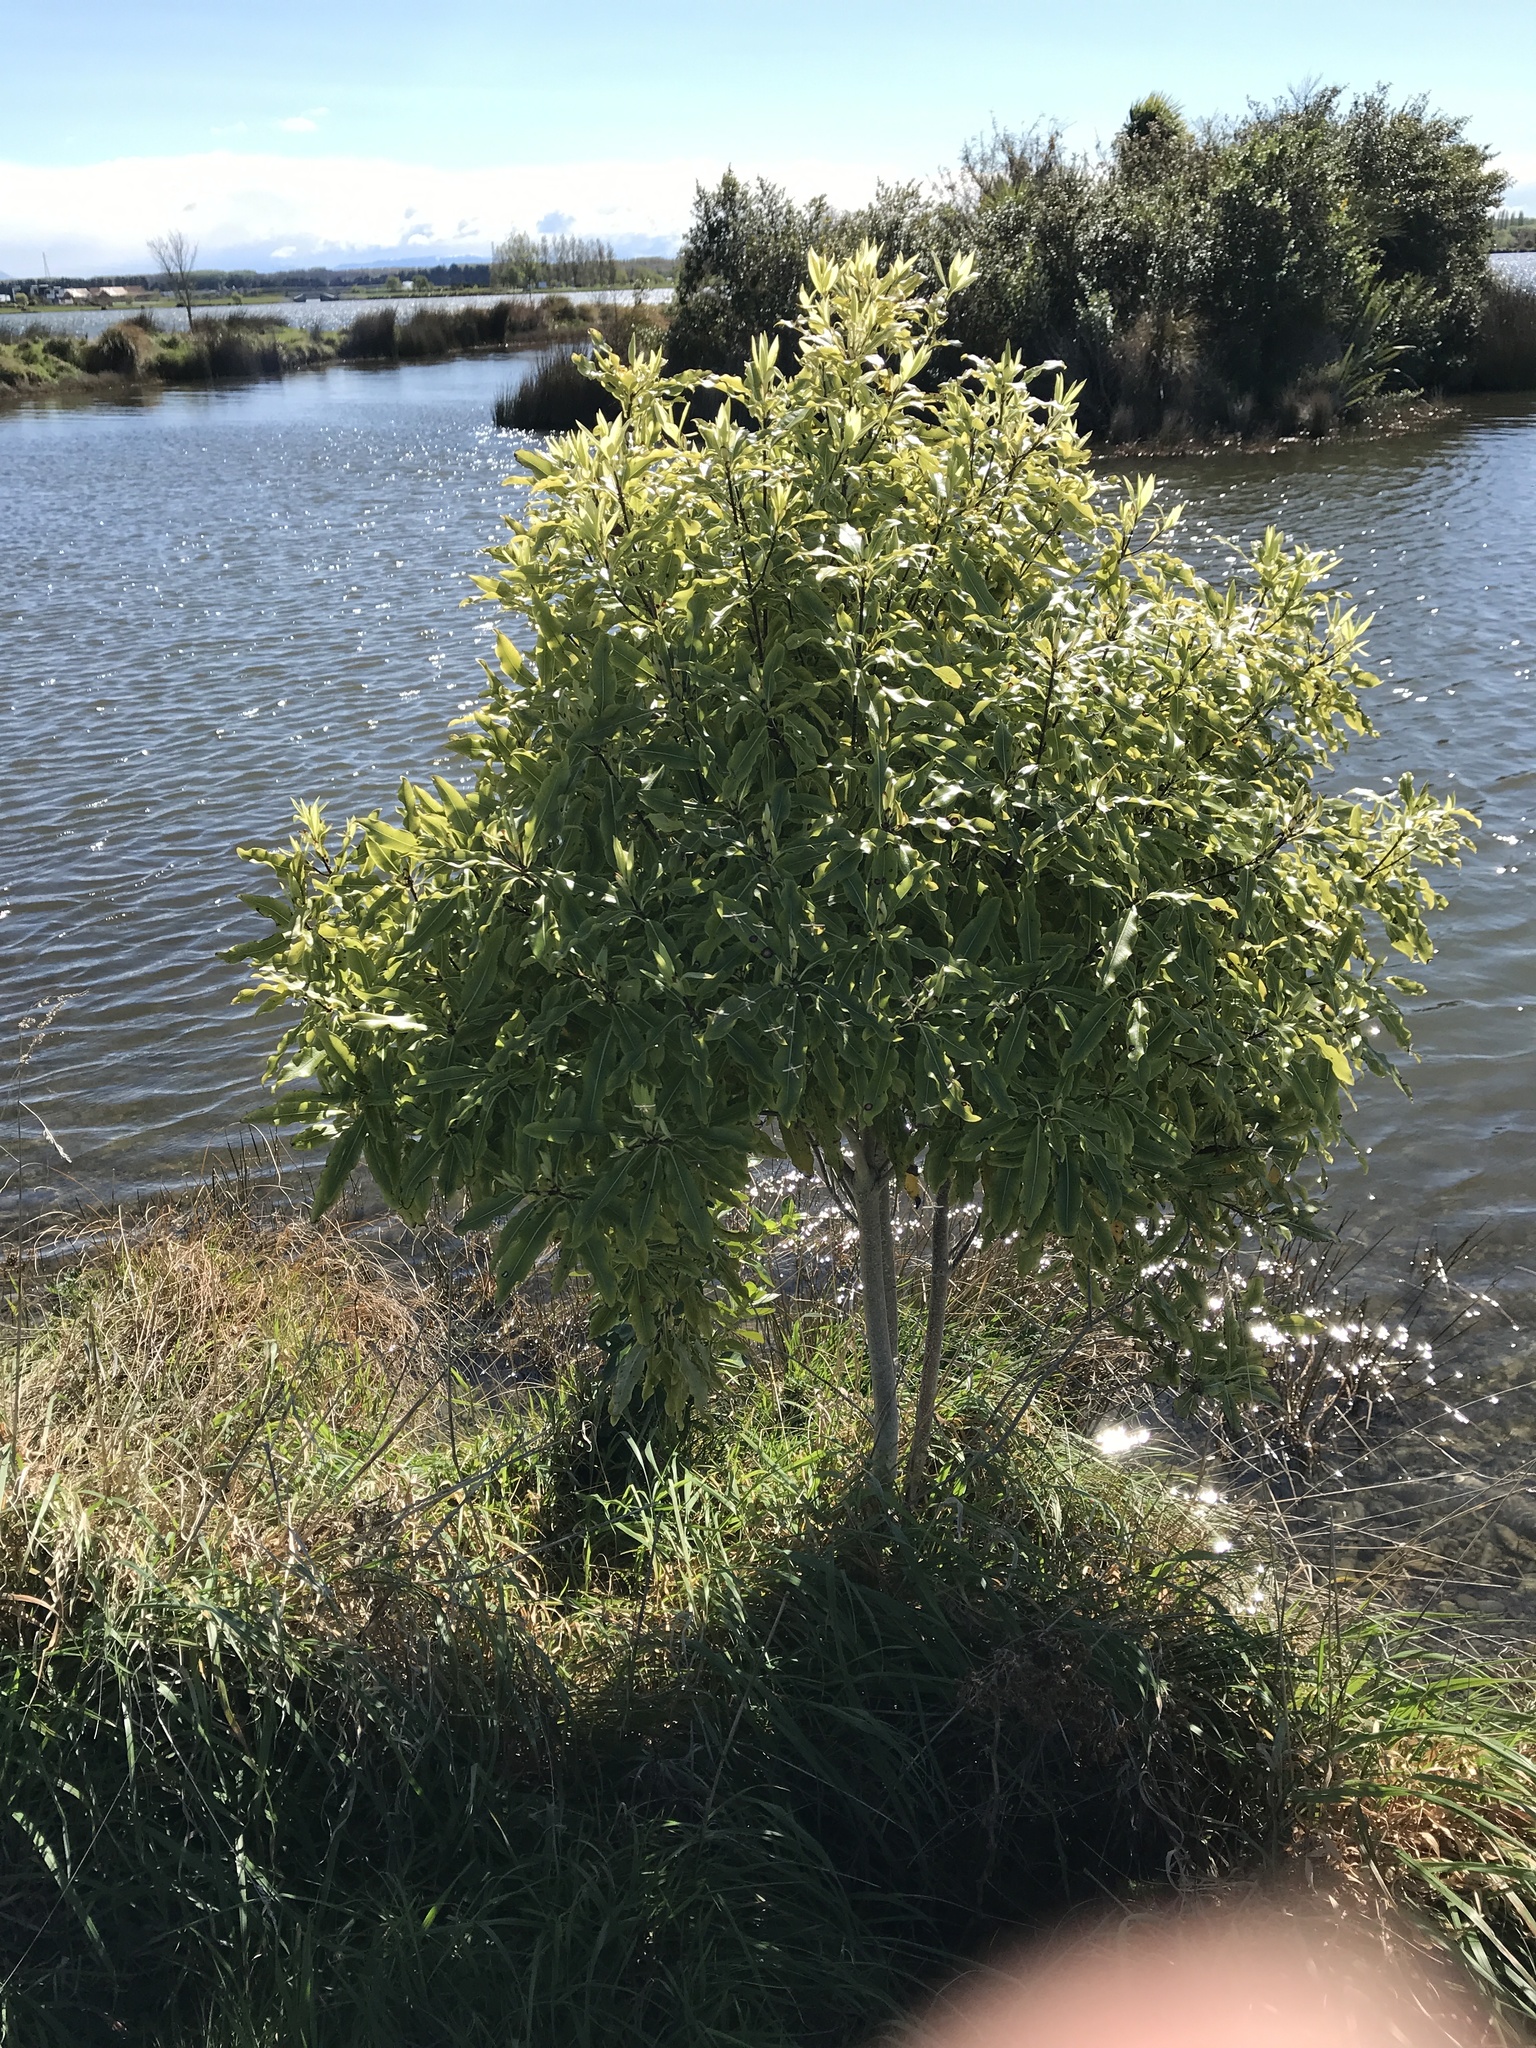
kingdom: Plantae
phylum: Tracheophyta
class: Magnoliopsida
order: Apiales
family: Pittosporaceae
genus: Pittosporum
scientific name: Pittosporum eugenioides
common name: Lemonwood
